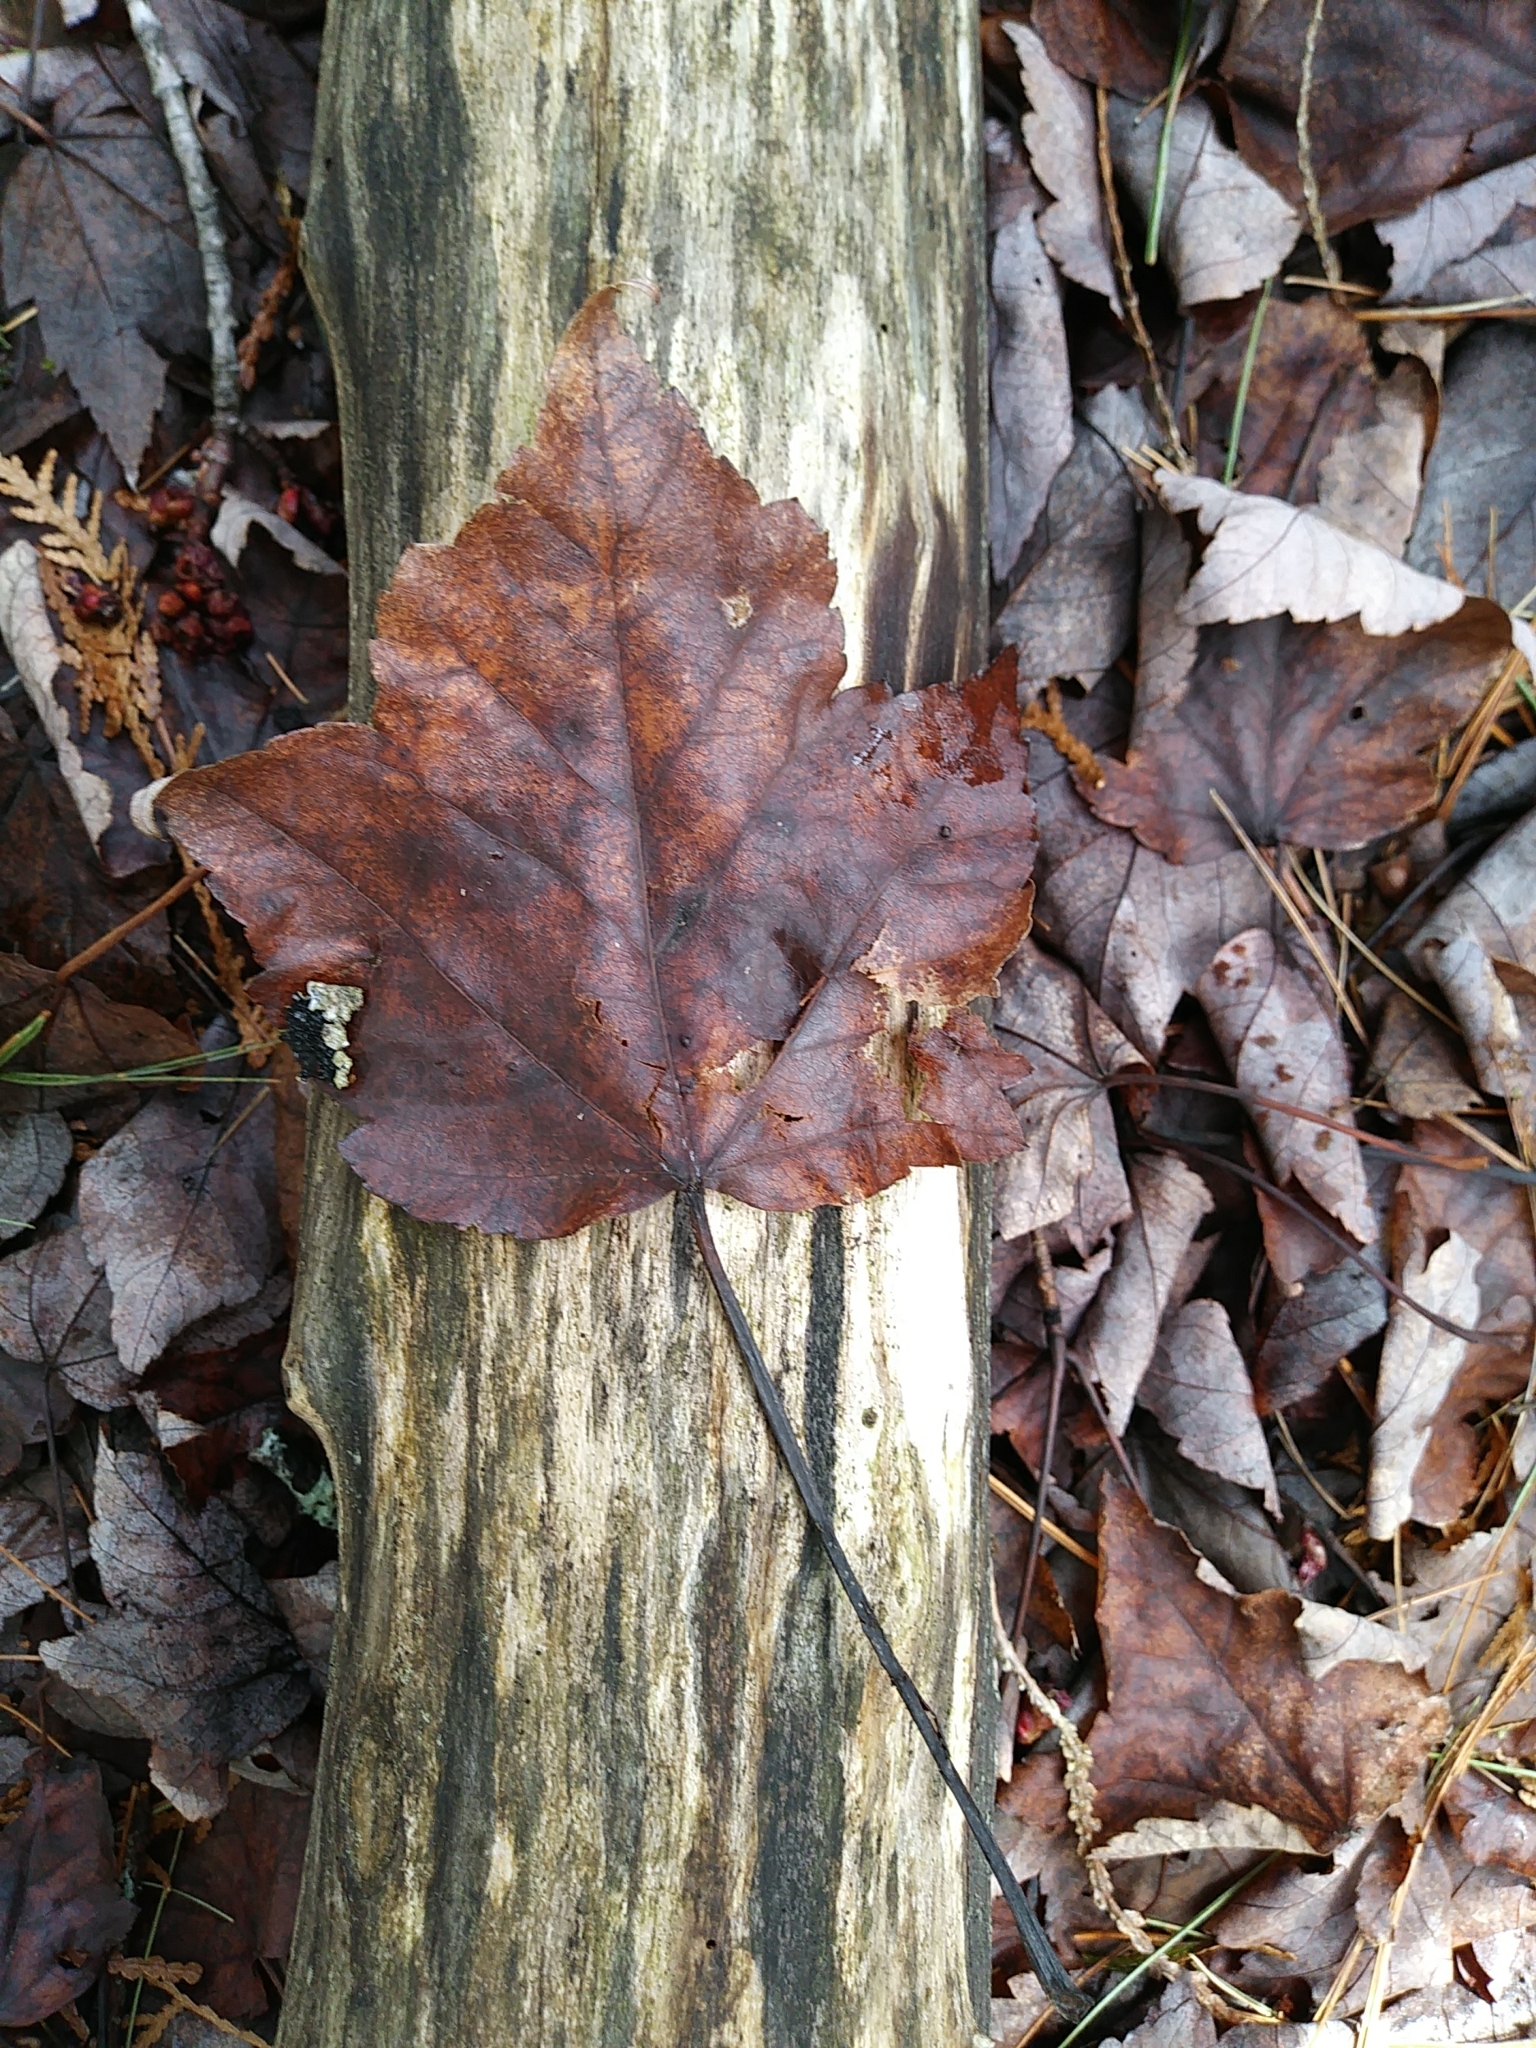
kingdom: Plantae
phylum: Tracheophyta
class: Magnoliopsida
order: Sapindales
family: Sapindaceae
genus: Acer
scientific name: Acer rubrum
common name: Red maple
